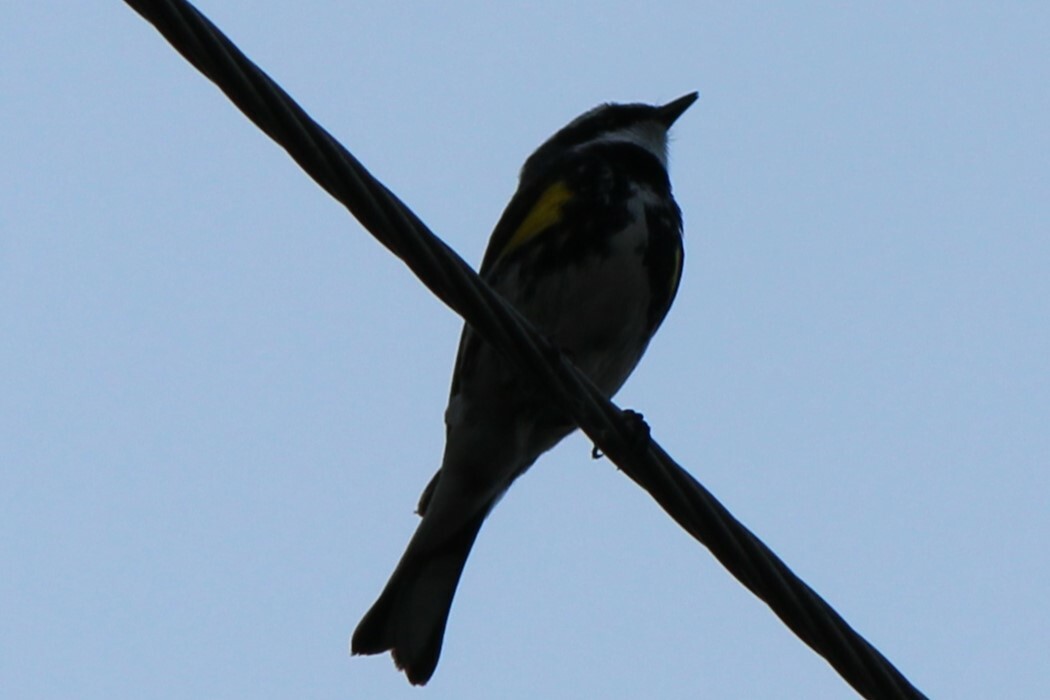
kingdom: Animalia
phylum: Chordata
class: Aves
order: Passeriformes
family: Parulidae
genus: Setophaga
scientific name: Setophaga coronata
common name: Myrtle warbler
